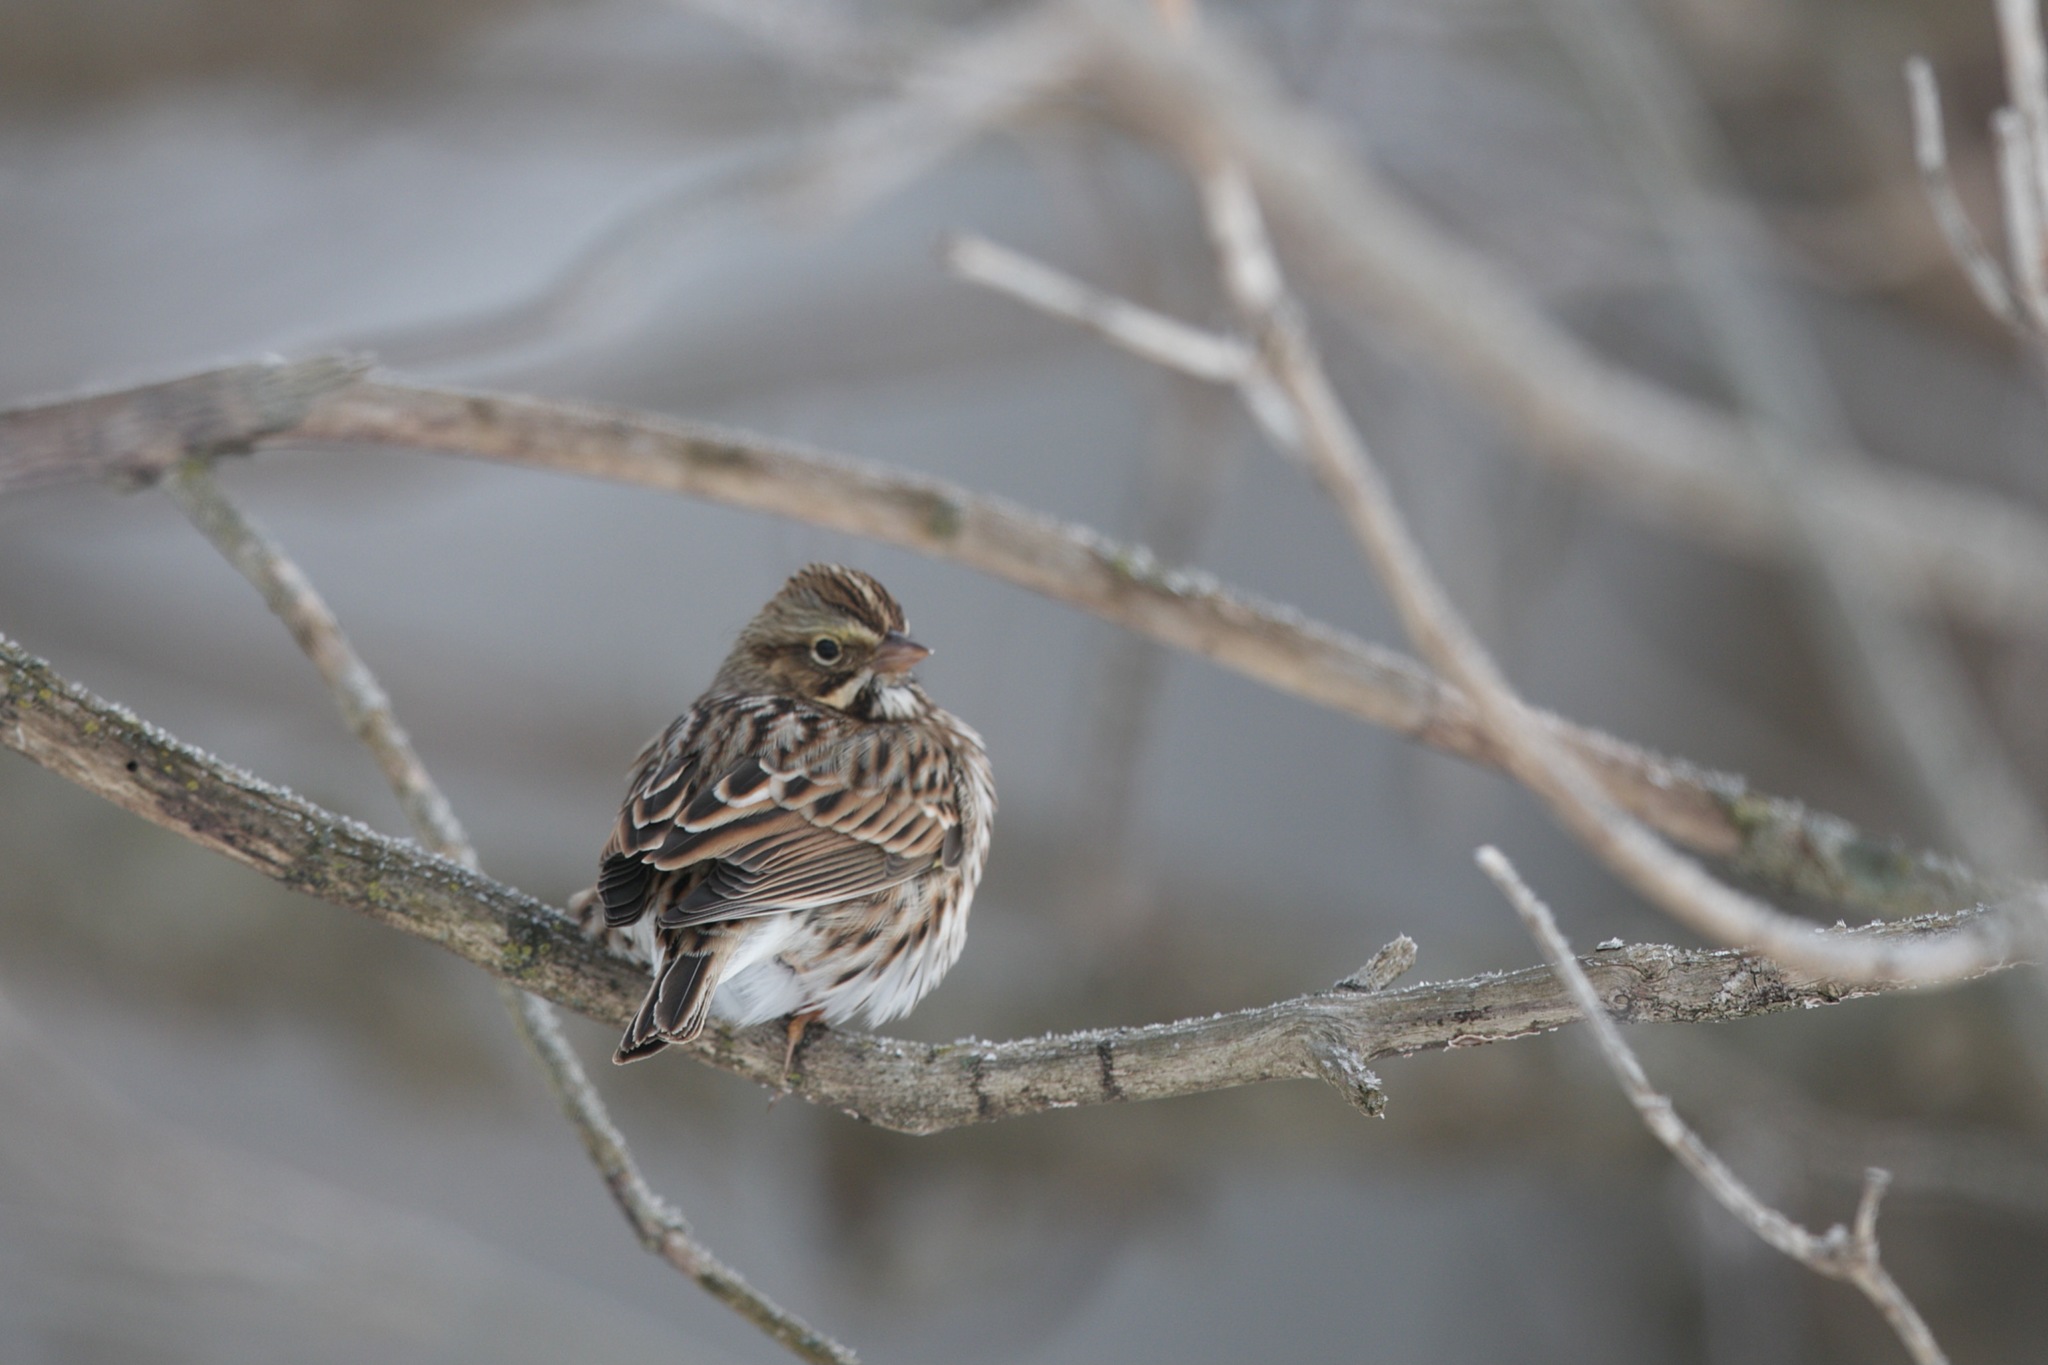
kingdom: Animalia
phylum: Chordata
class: Aves
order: Passeriformes
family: Passerellidae
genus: Passerculus
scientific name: Passerculus sandwichensis
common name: Savannah sparrow
